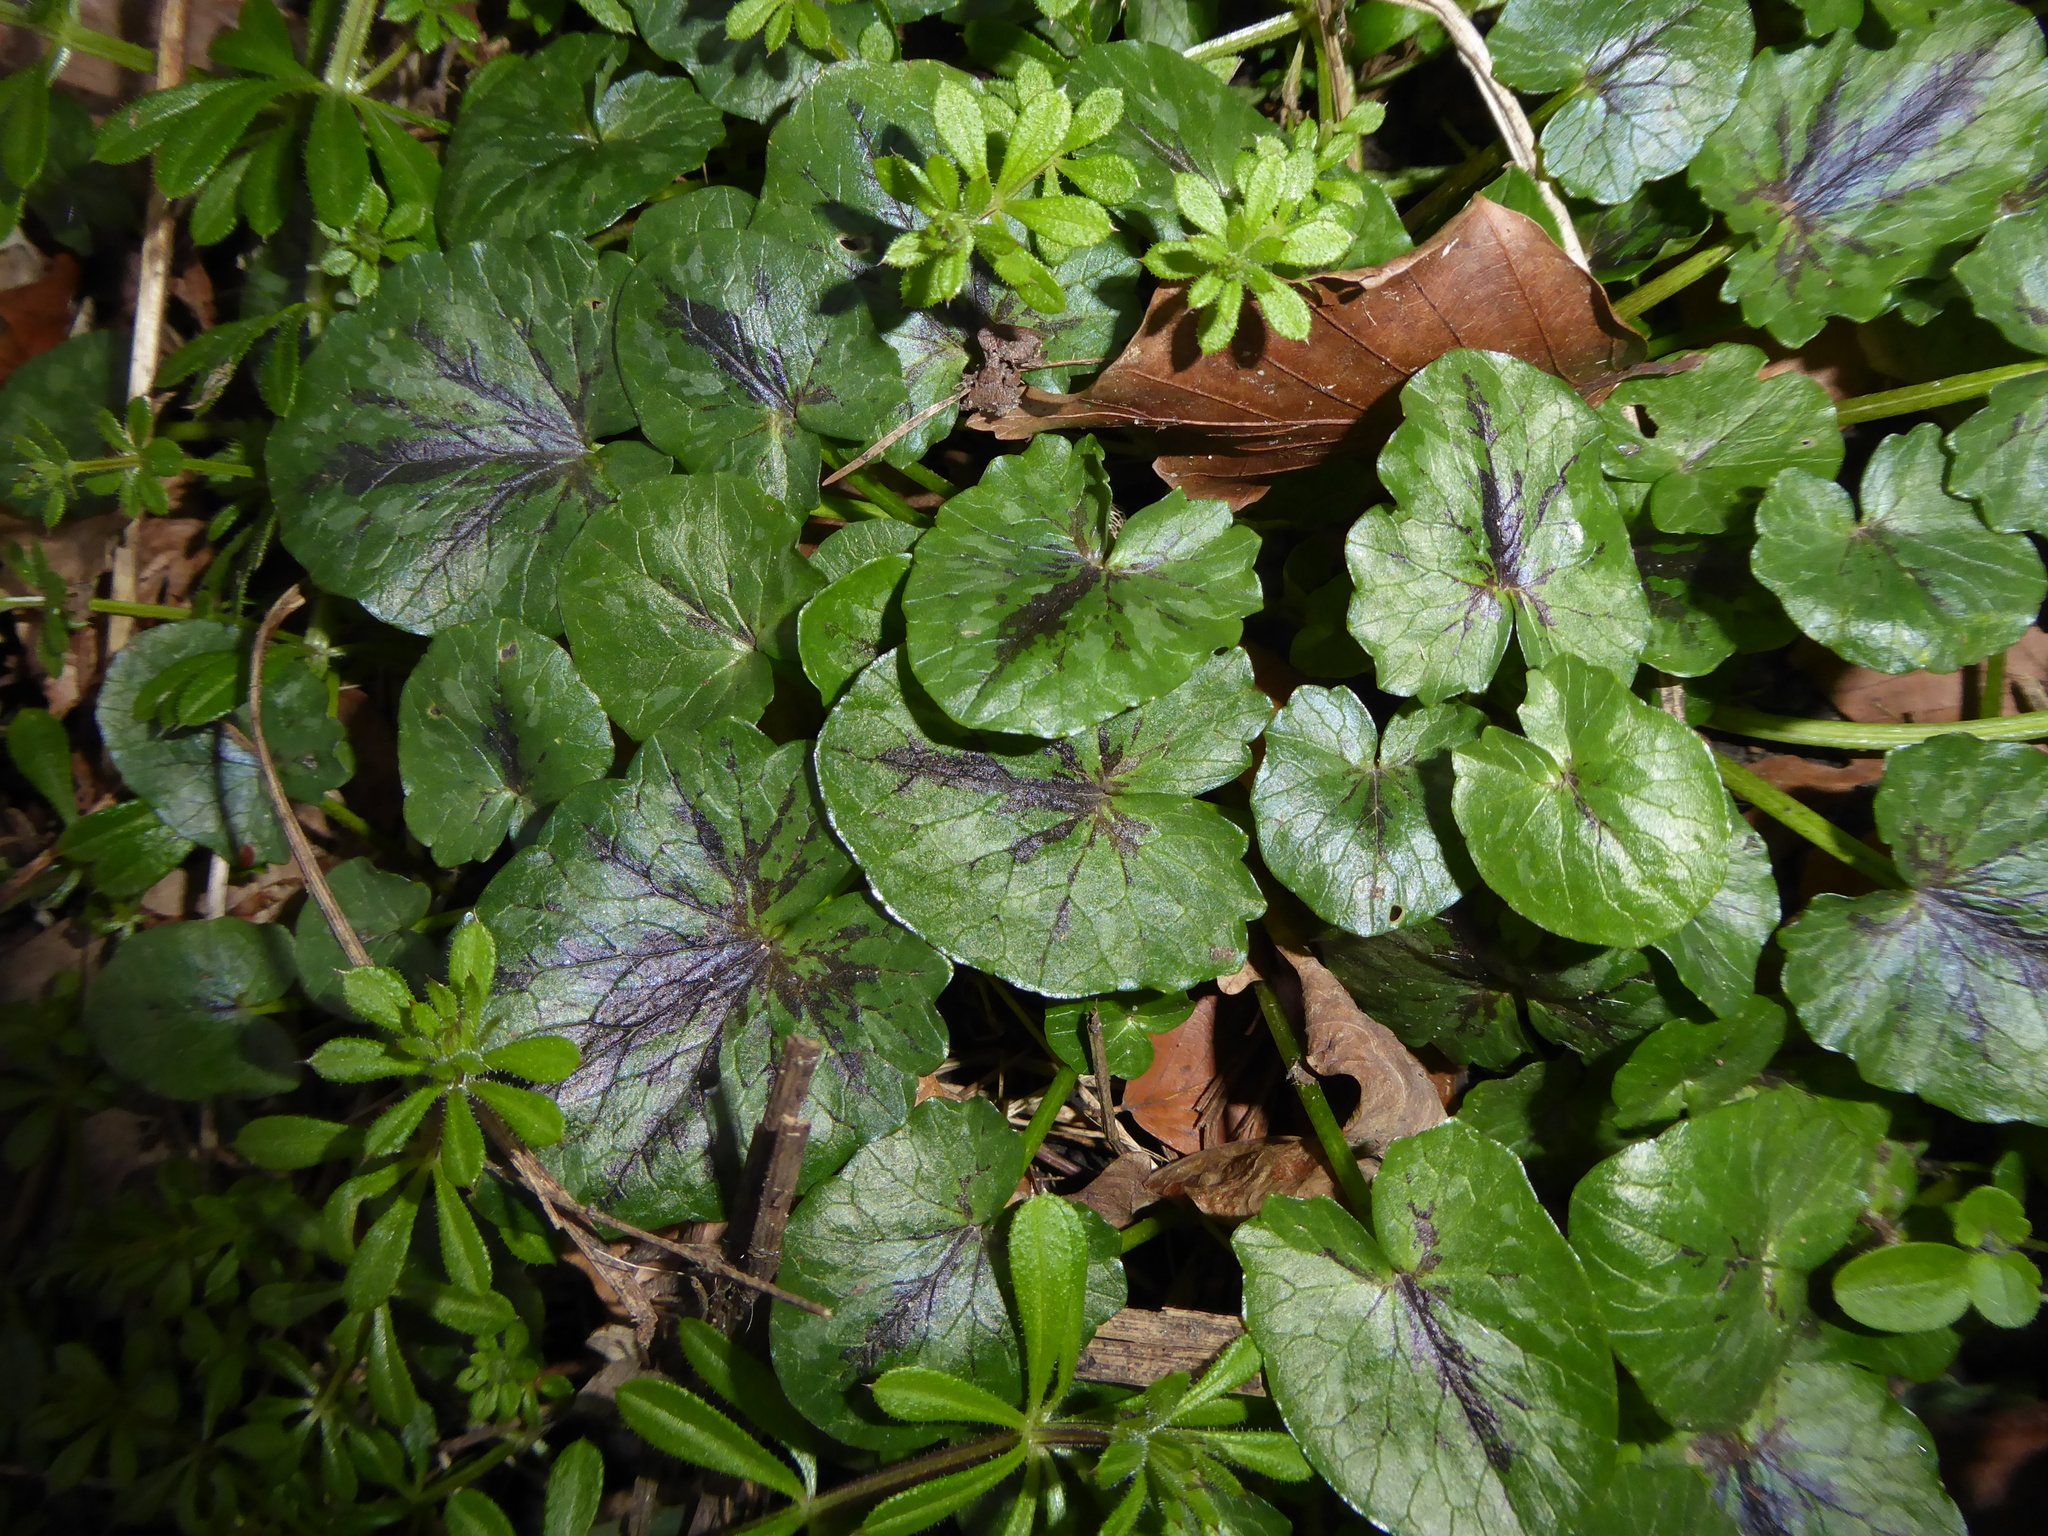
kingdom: Plantae
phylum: Tracheophyta
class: Magnoliopsida
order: Ranunculales
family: Ranunculaceae
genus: Ficaria
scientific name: Ficaria verna
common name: Lesser celandine
